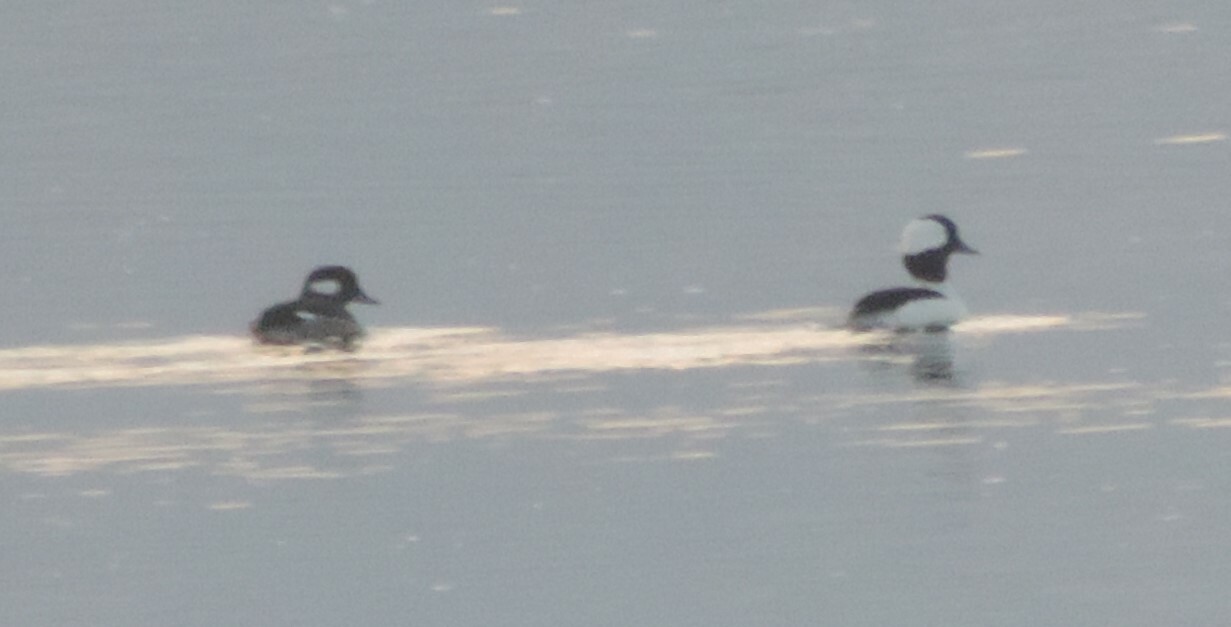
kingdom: Animalia
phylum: Chordata
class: Aves
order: Anseriformes
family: Anatidae
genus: Bucephala
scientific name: Bucephala albeola
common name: Bufflehead
